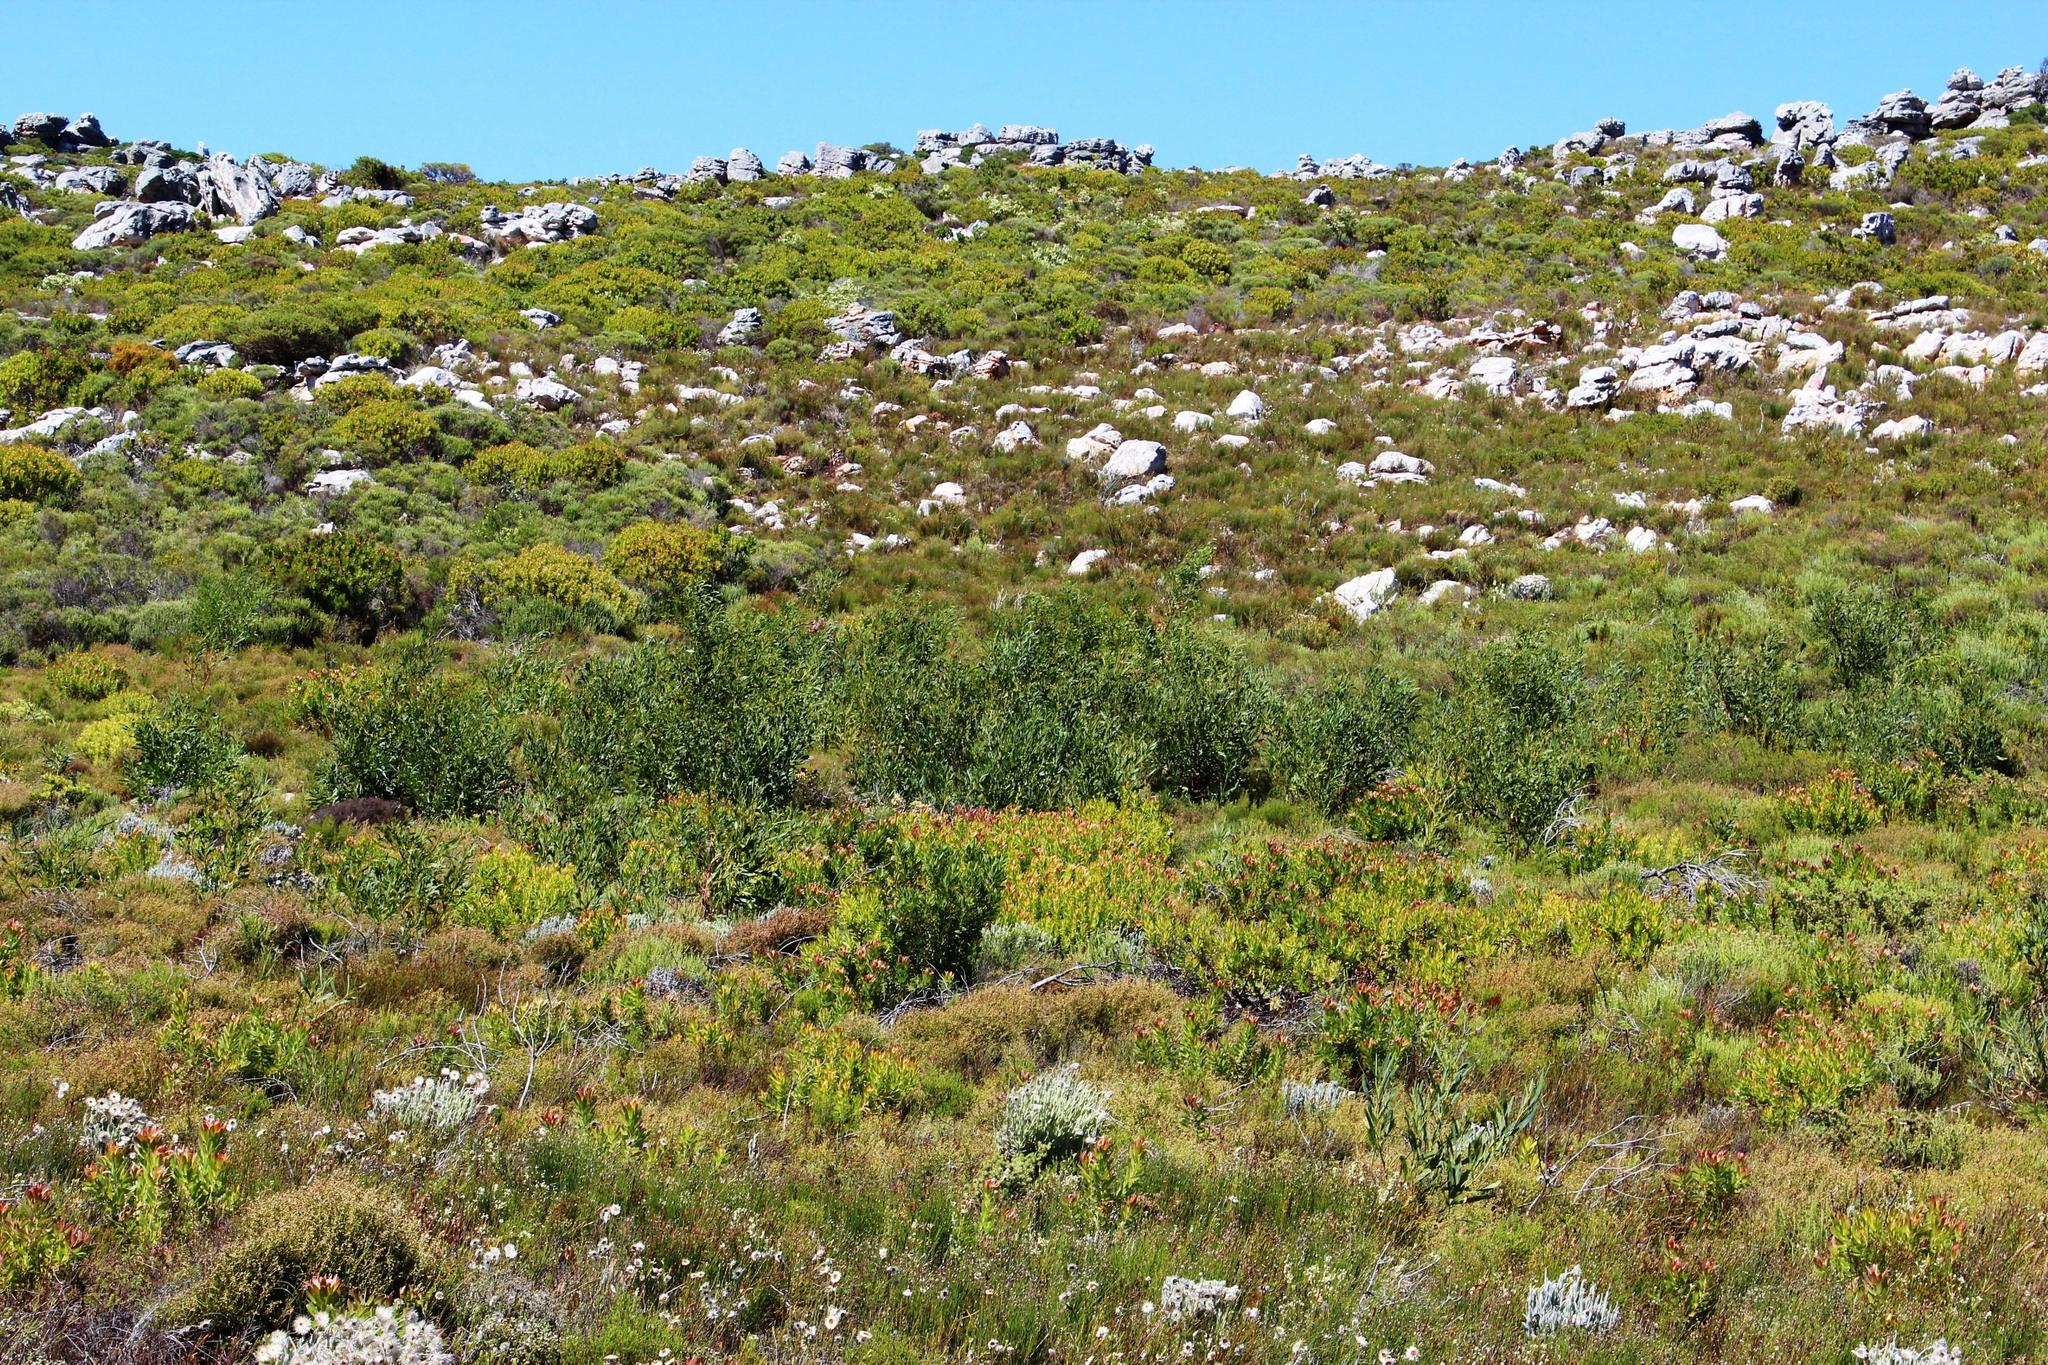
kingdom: Plantae
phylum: Tracheophyta
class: Magnoliopsida
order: Fabales
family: Fabaceae
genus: Acacia
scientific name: Acacia saligna
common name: Orange wattle
